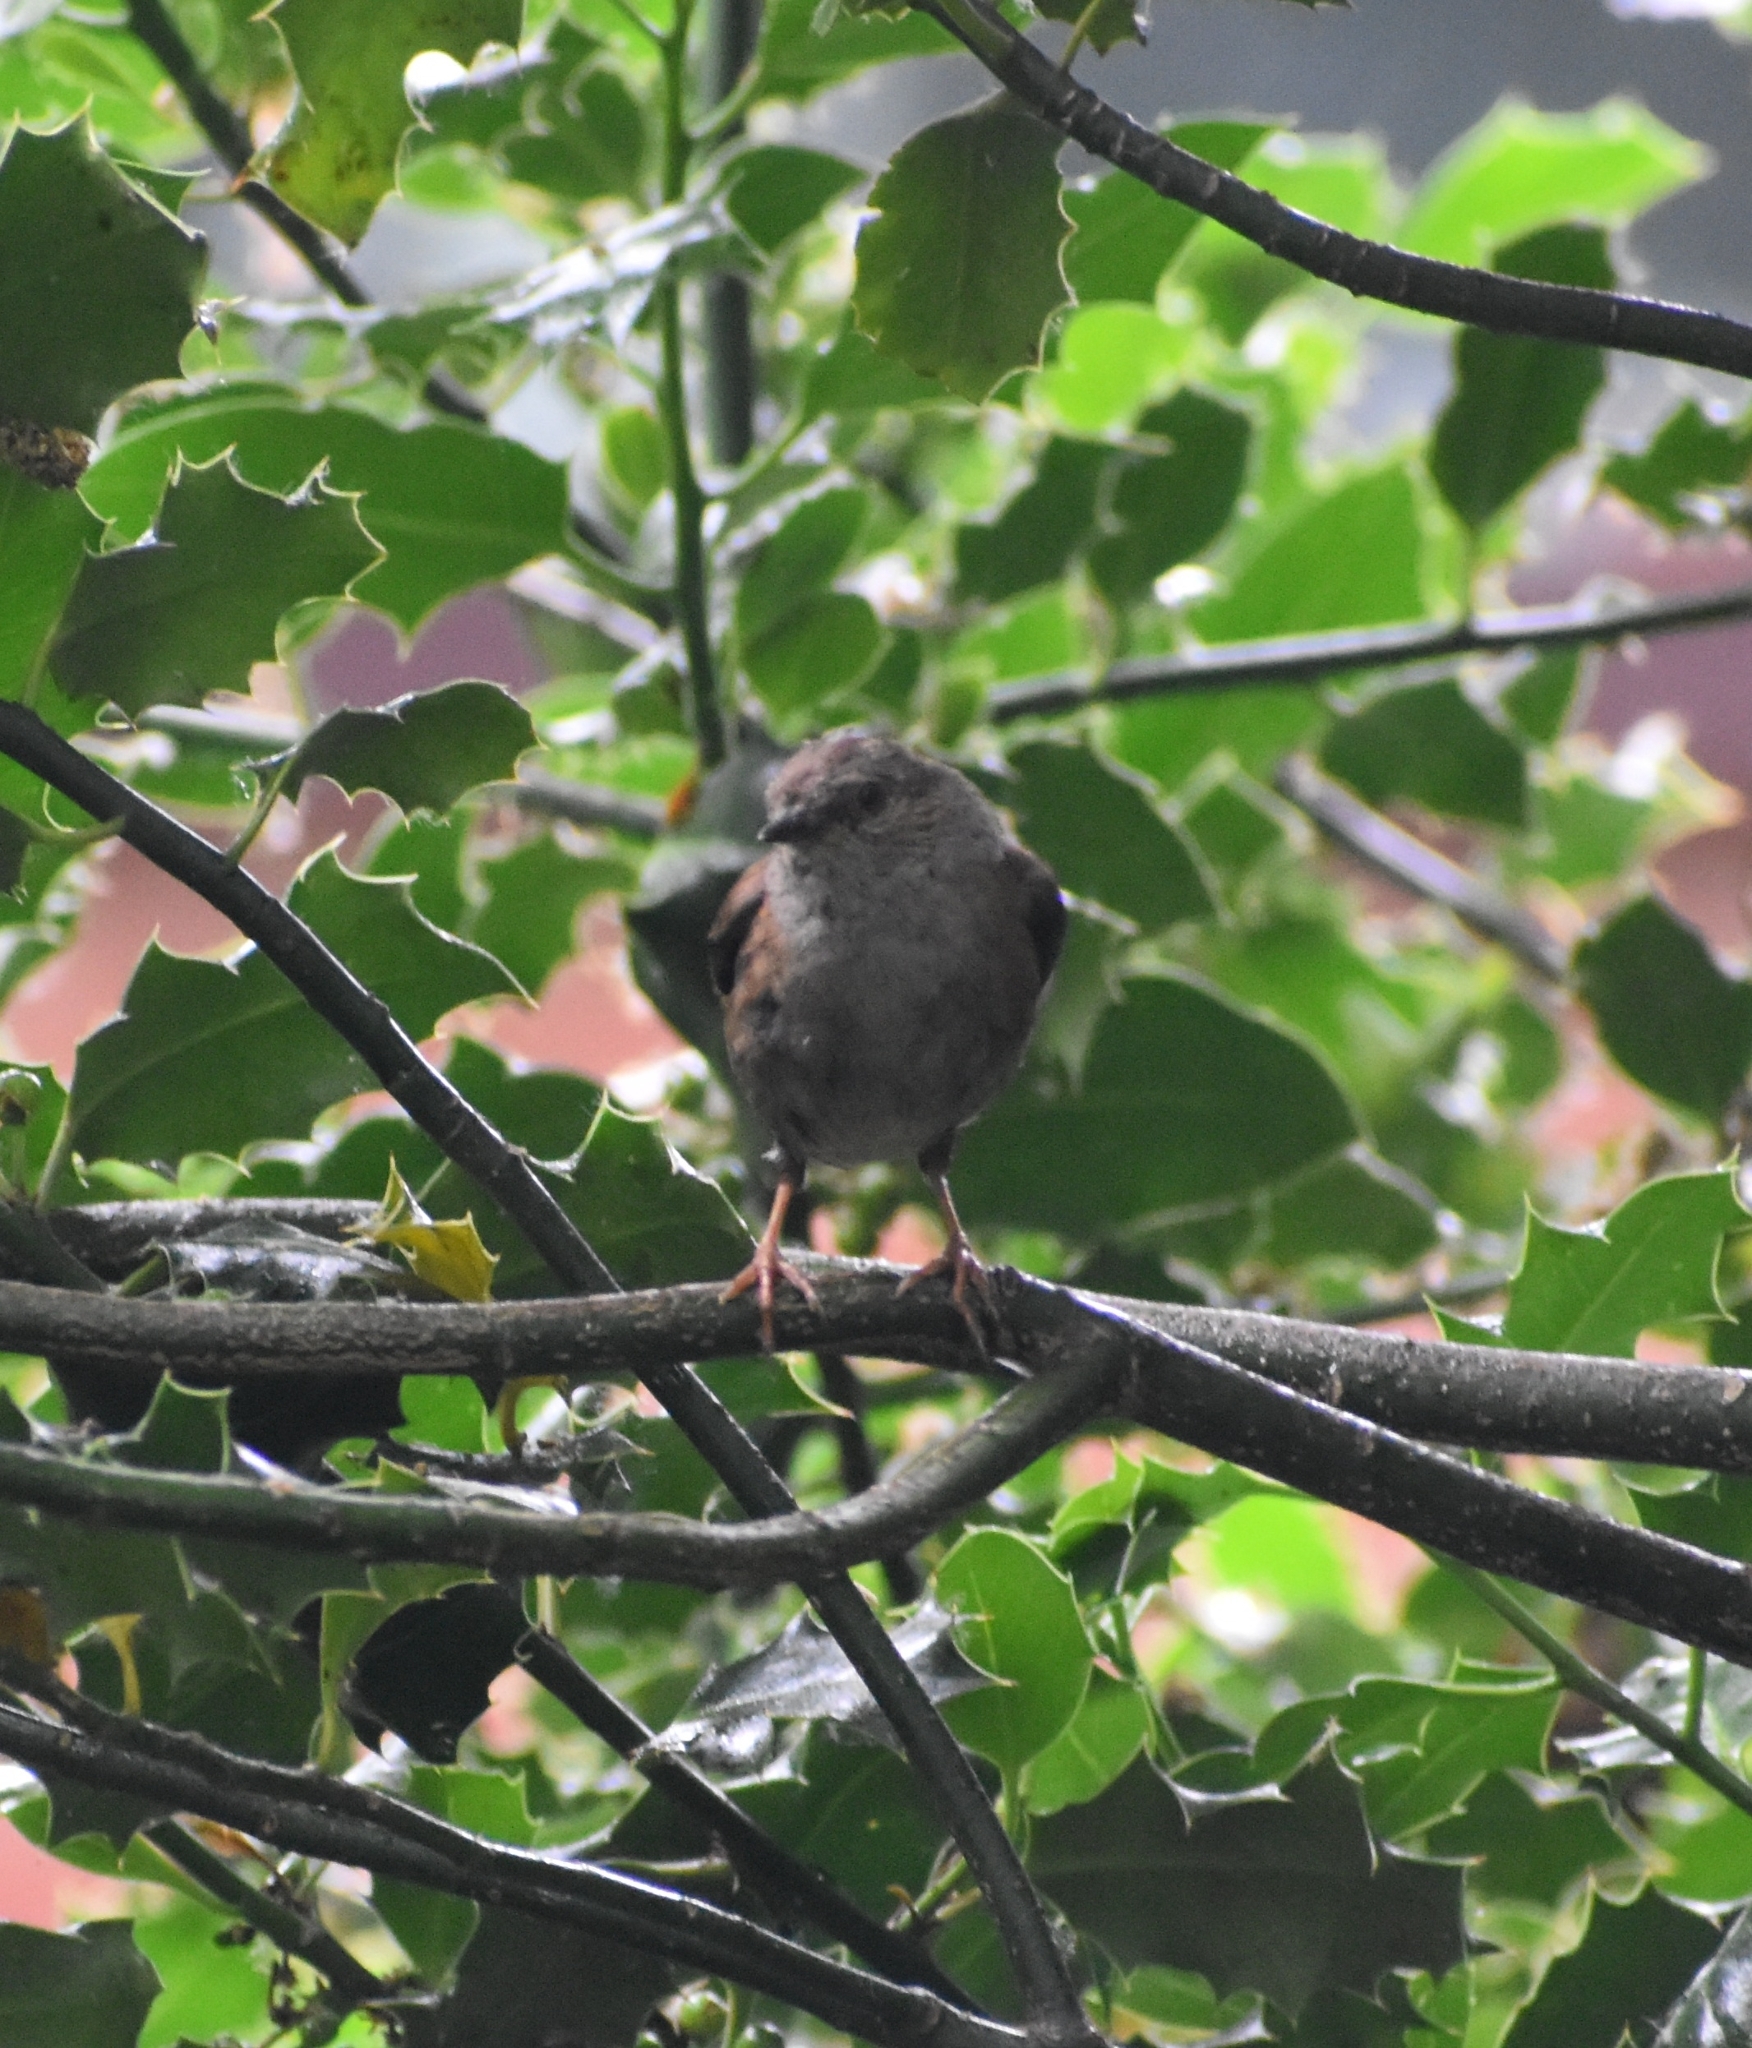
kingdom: Animalia
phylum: Chordata
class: Aves
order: Passeriformes
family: Prunellidae
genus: Prunella
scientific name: Prunella modularis
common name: Dunnock
